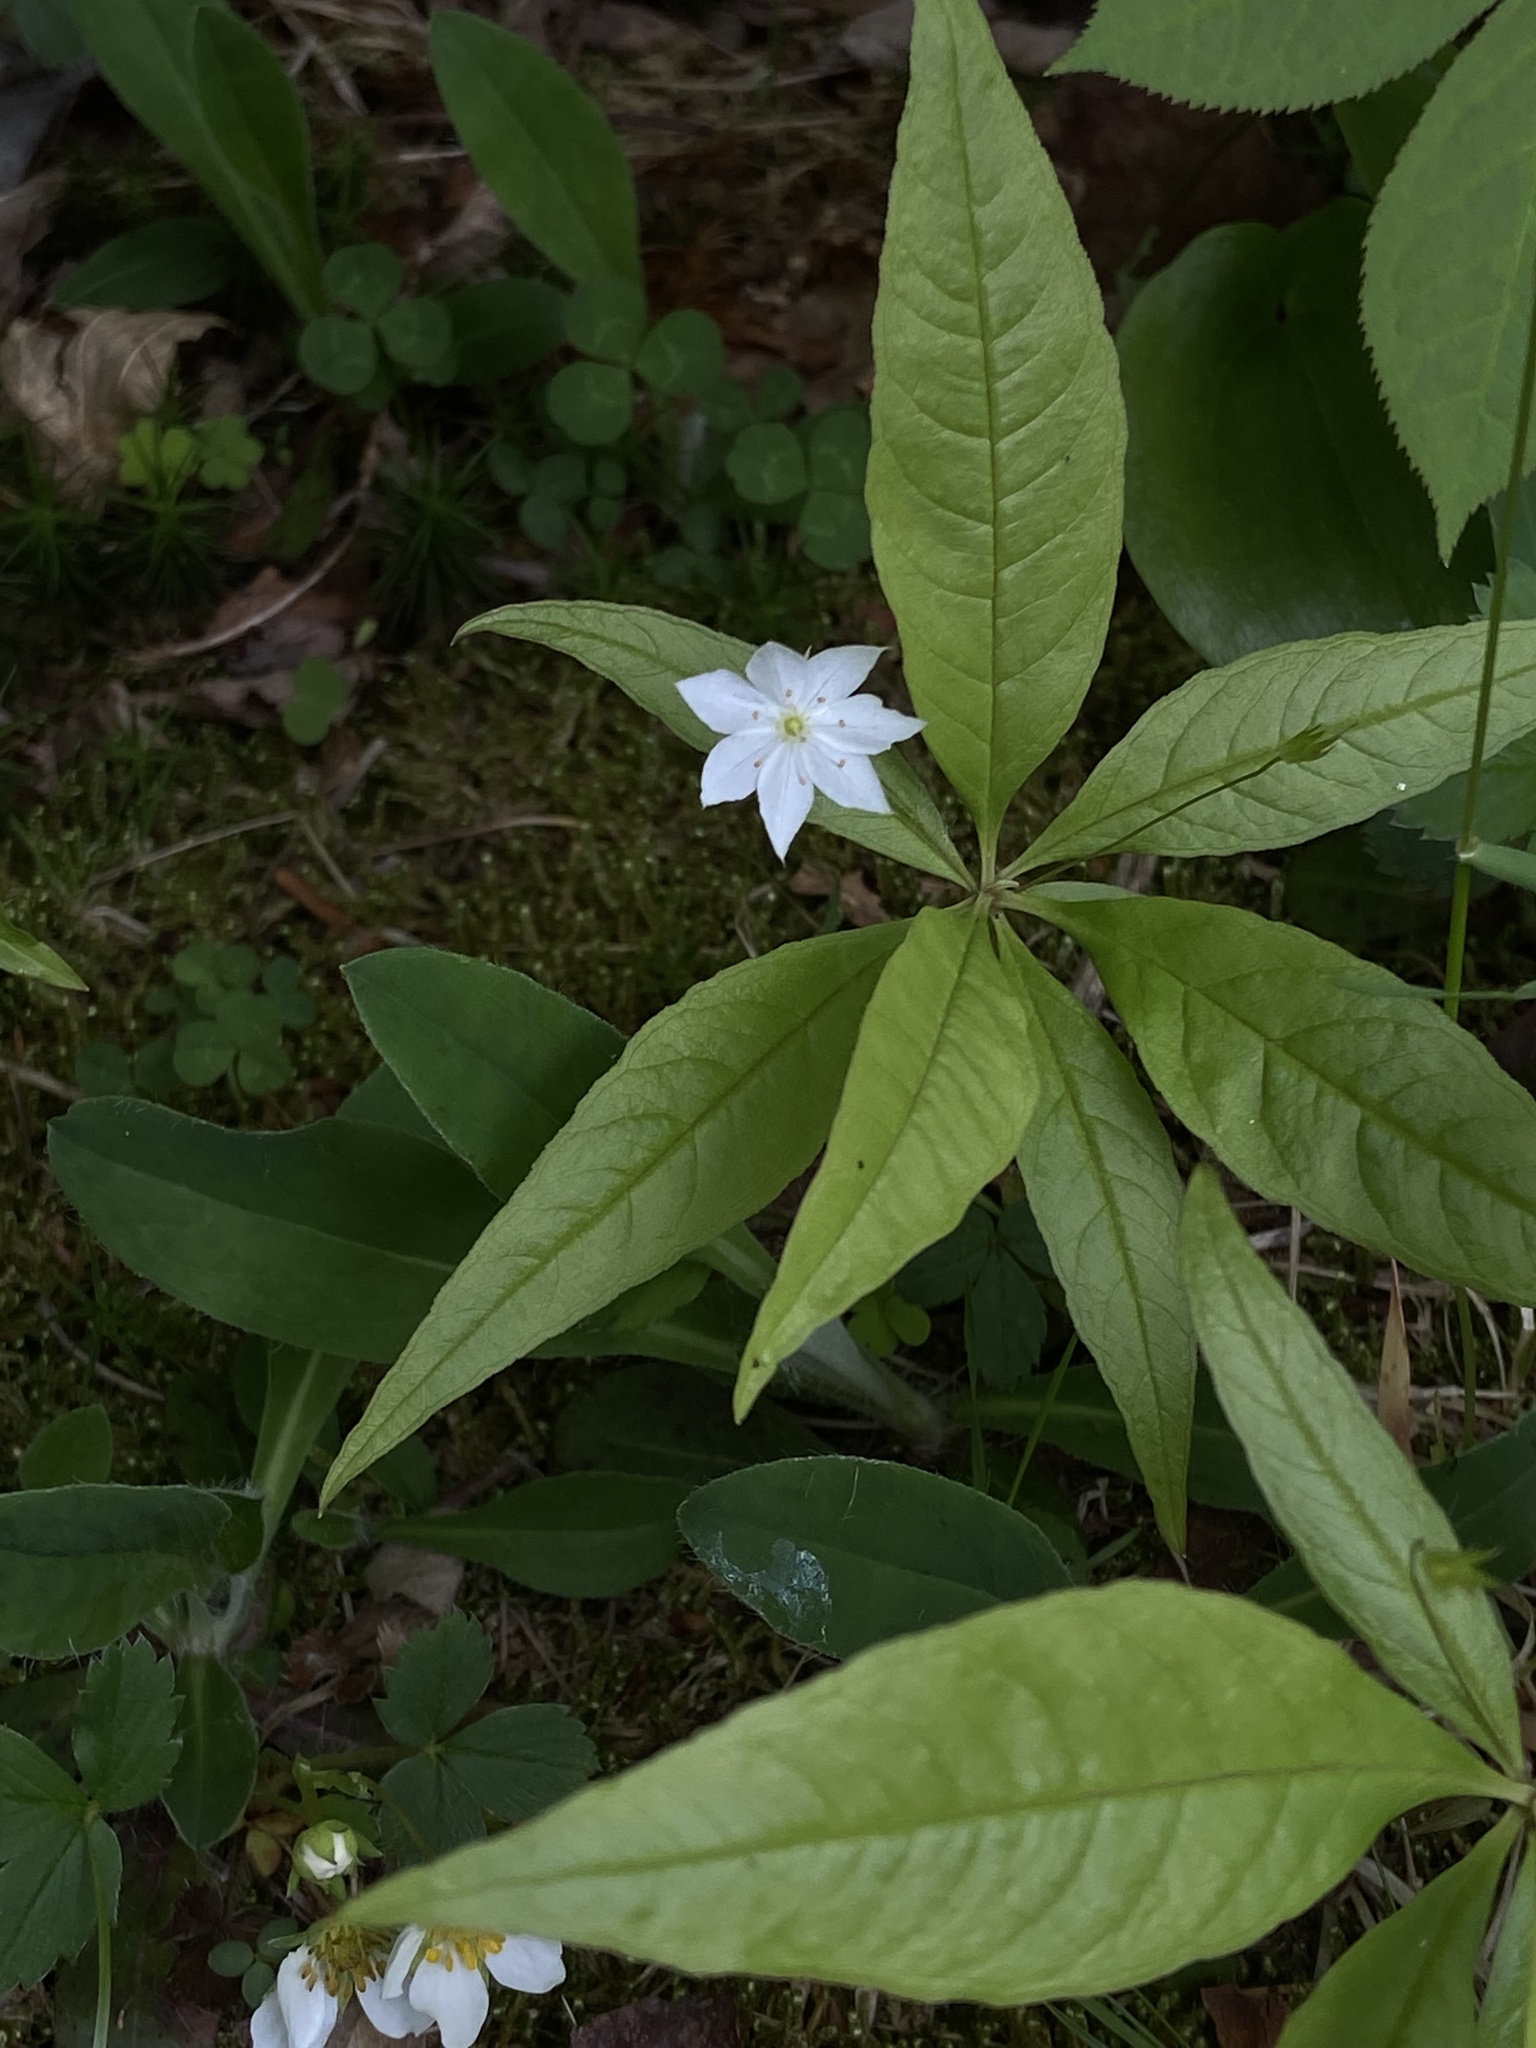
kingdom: Plantae
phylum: Tracheophyta
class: Magnoliopsida
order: Ericales
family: Primulaceae
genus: Lysimachia
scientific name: Lysimachia borealis
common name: American starflower
